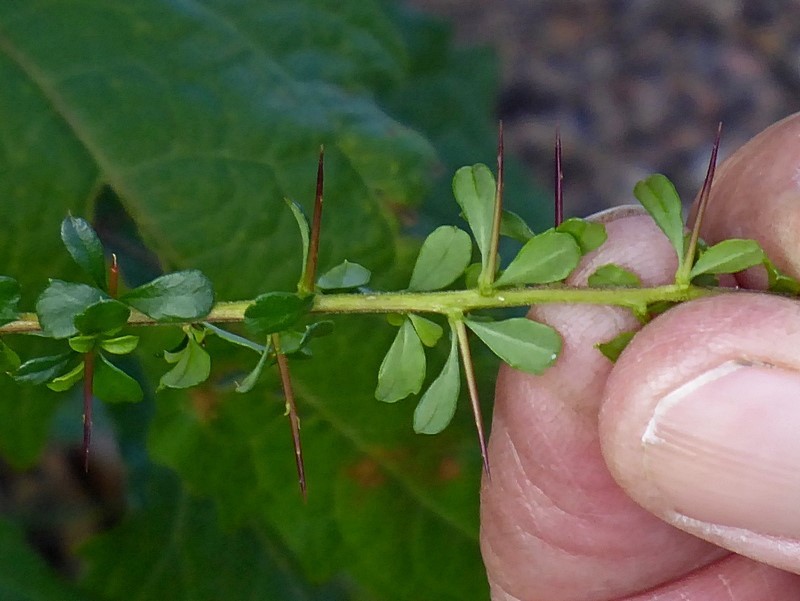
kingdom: Plantae
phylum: Tracheophyta
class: Magnoliopsida
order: Apiales
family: Pittosporaceae
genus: Bursaria
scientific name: Bursaria spinosa
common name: Australian blackthorn
